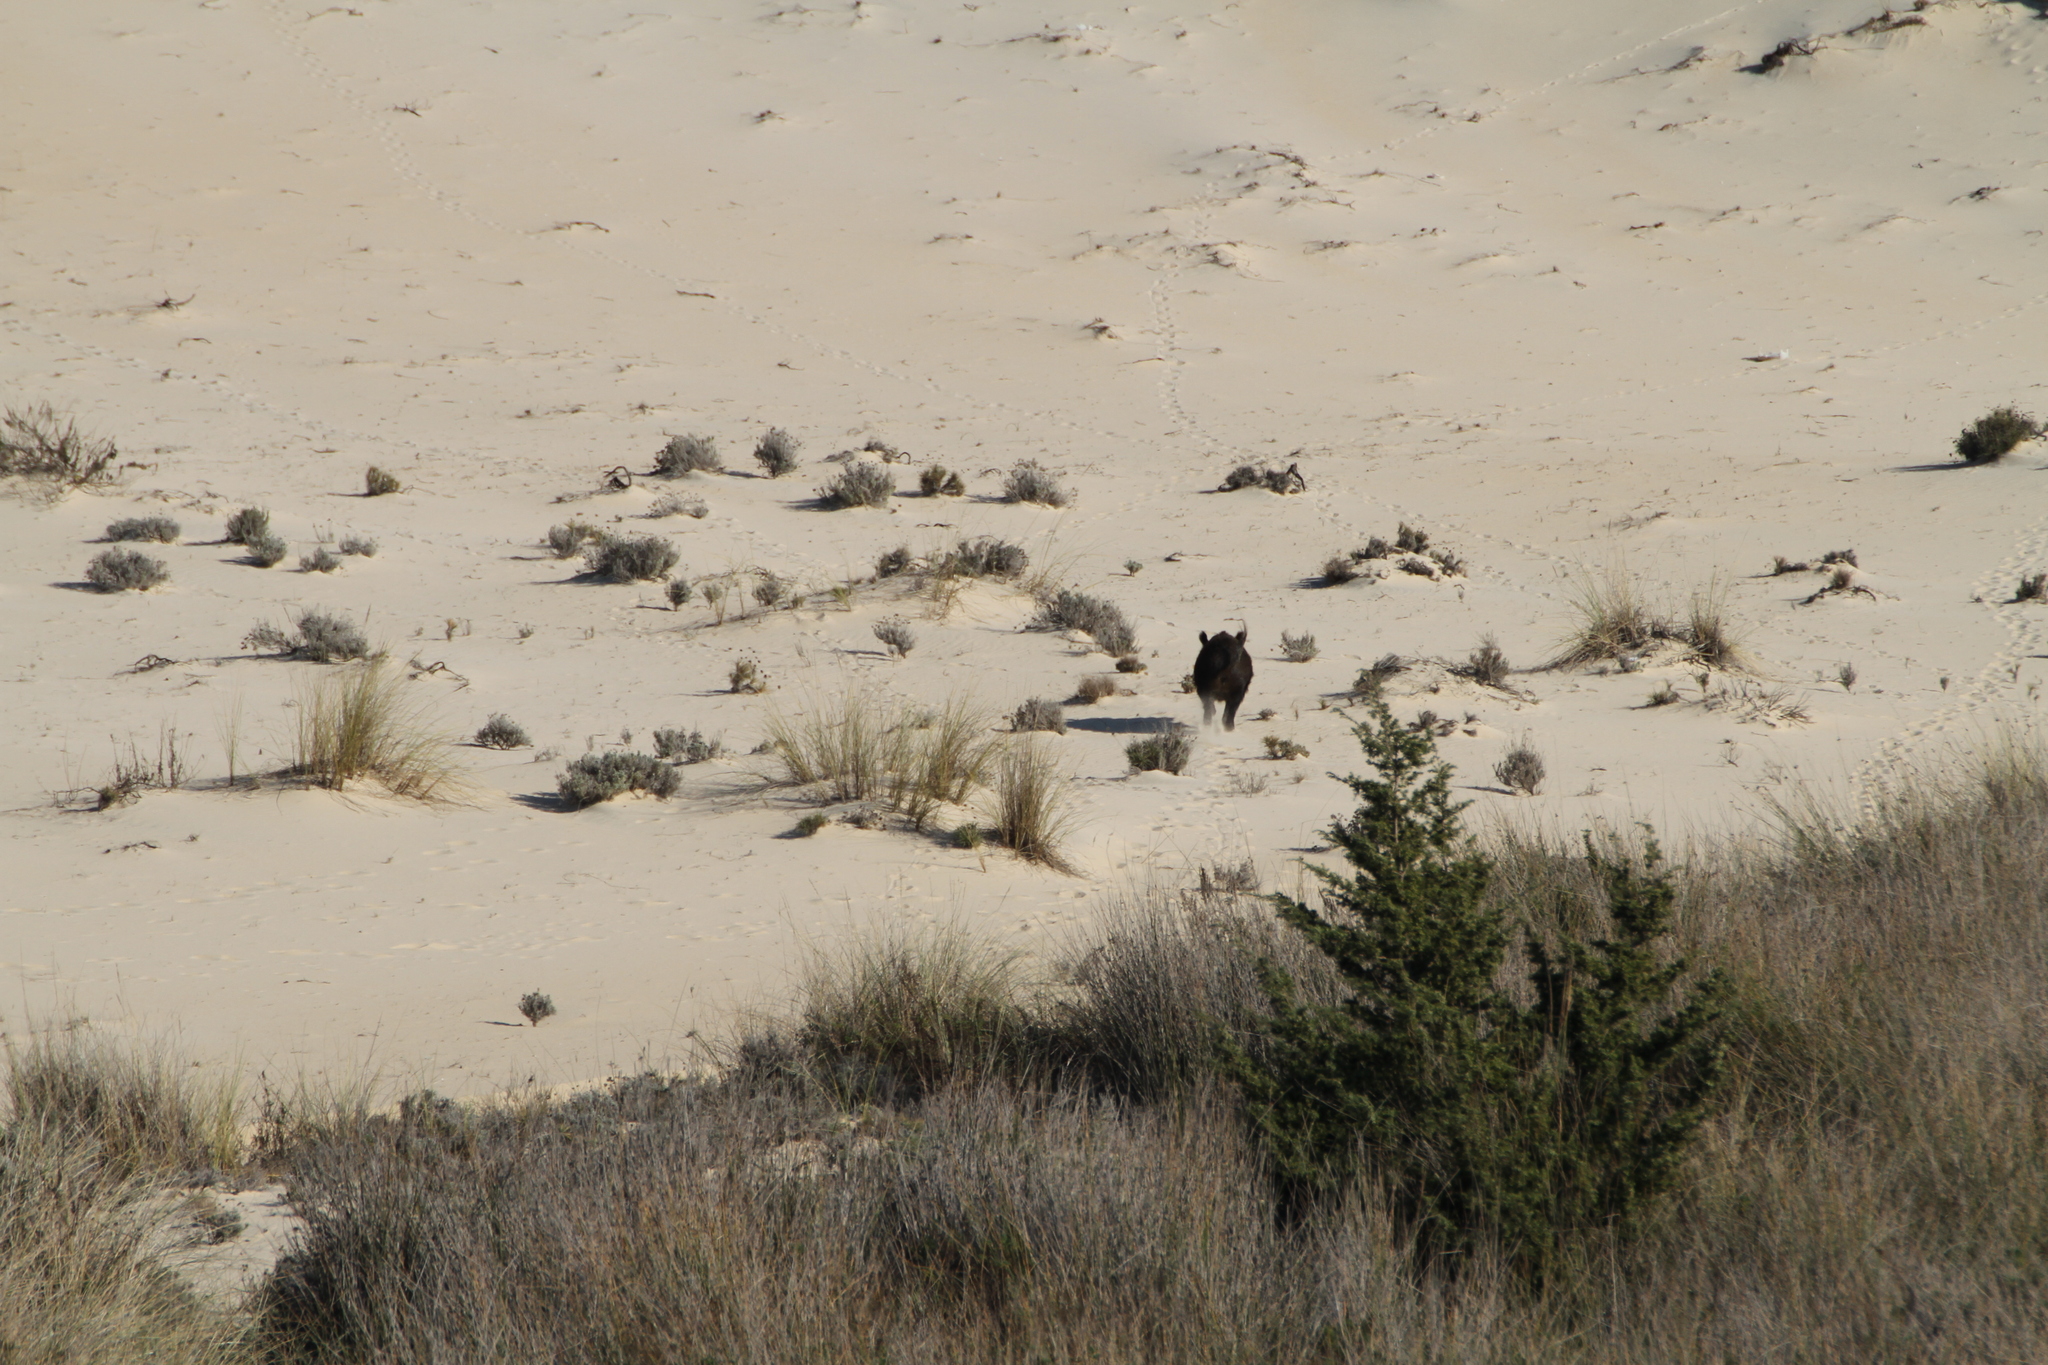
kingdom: Animalia
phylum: Chordata
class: Mammalia
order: Artiodactyla
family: Suidae
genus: Sus
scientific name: Sus scrofa
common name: Wild boar
